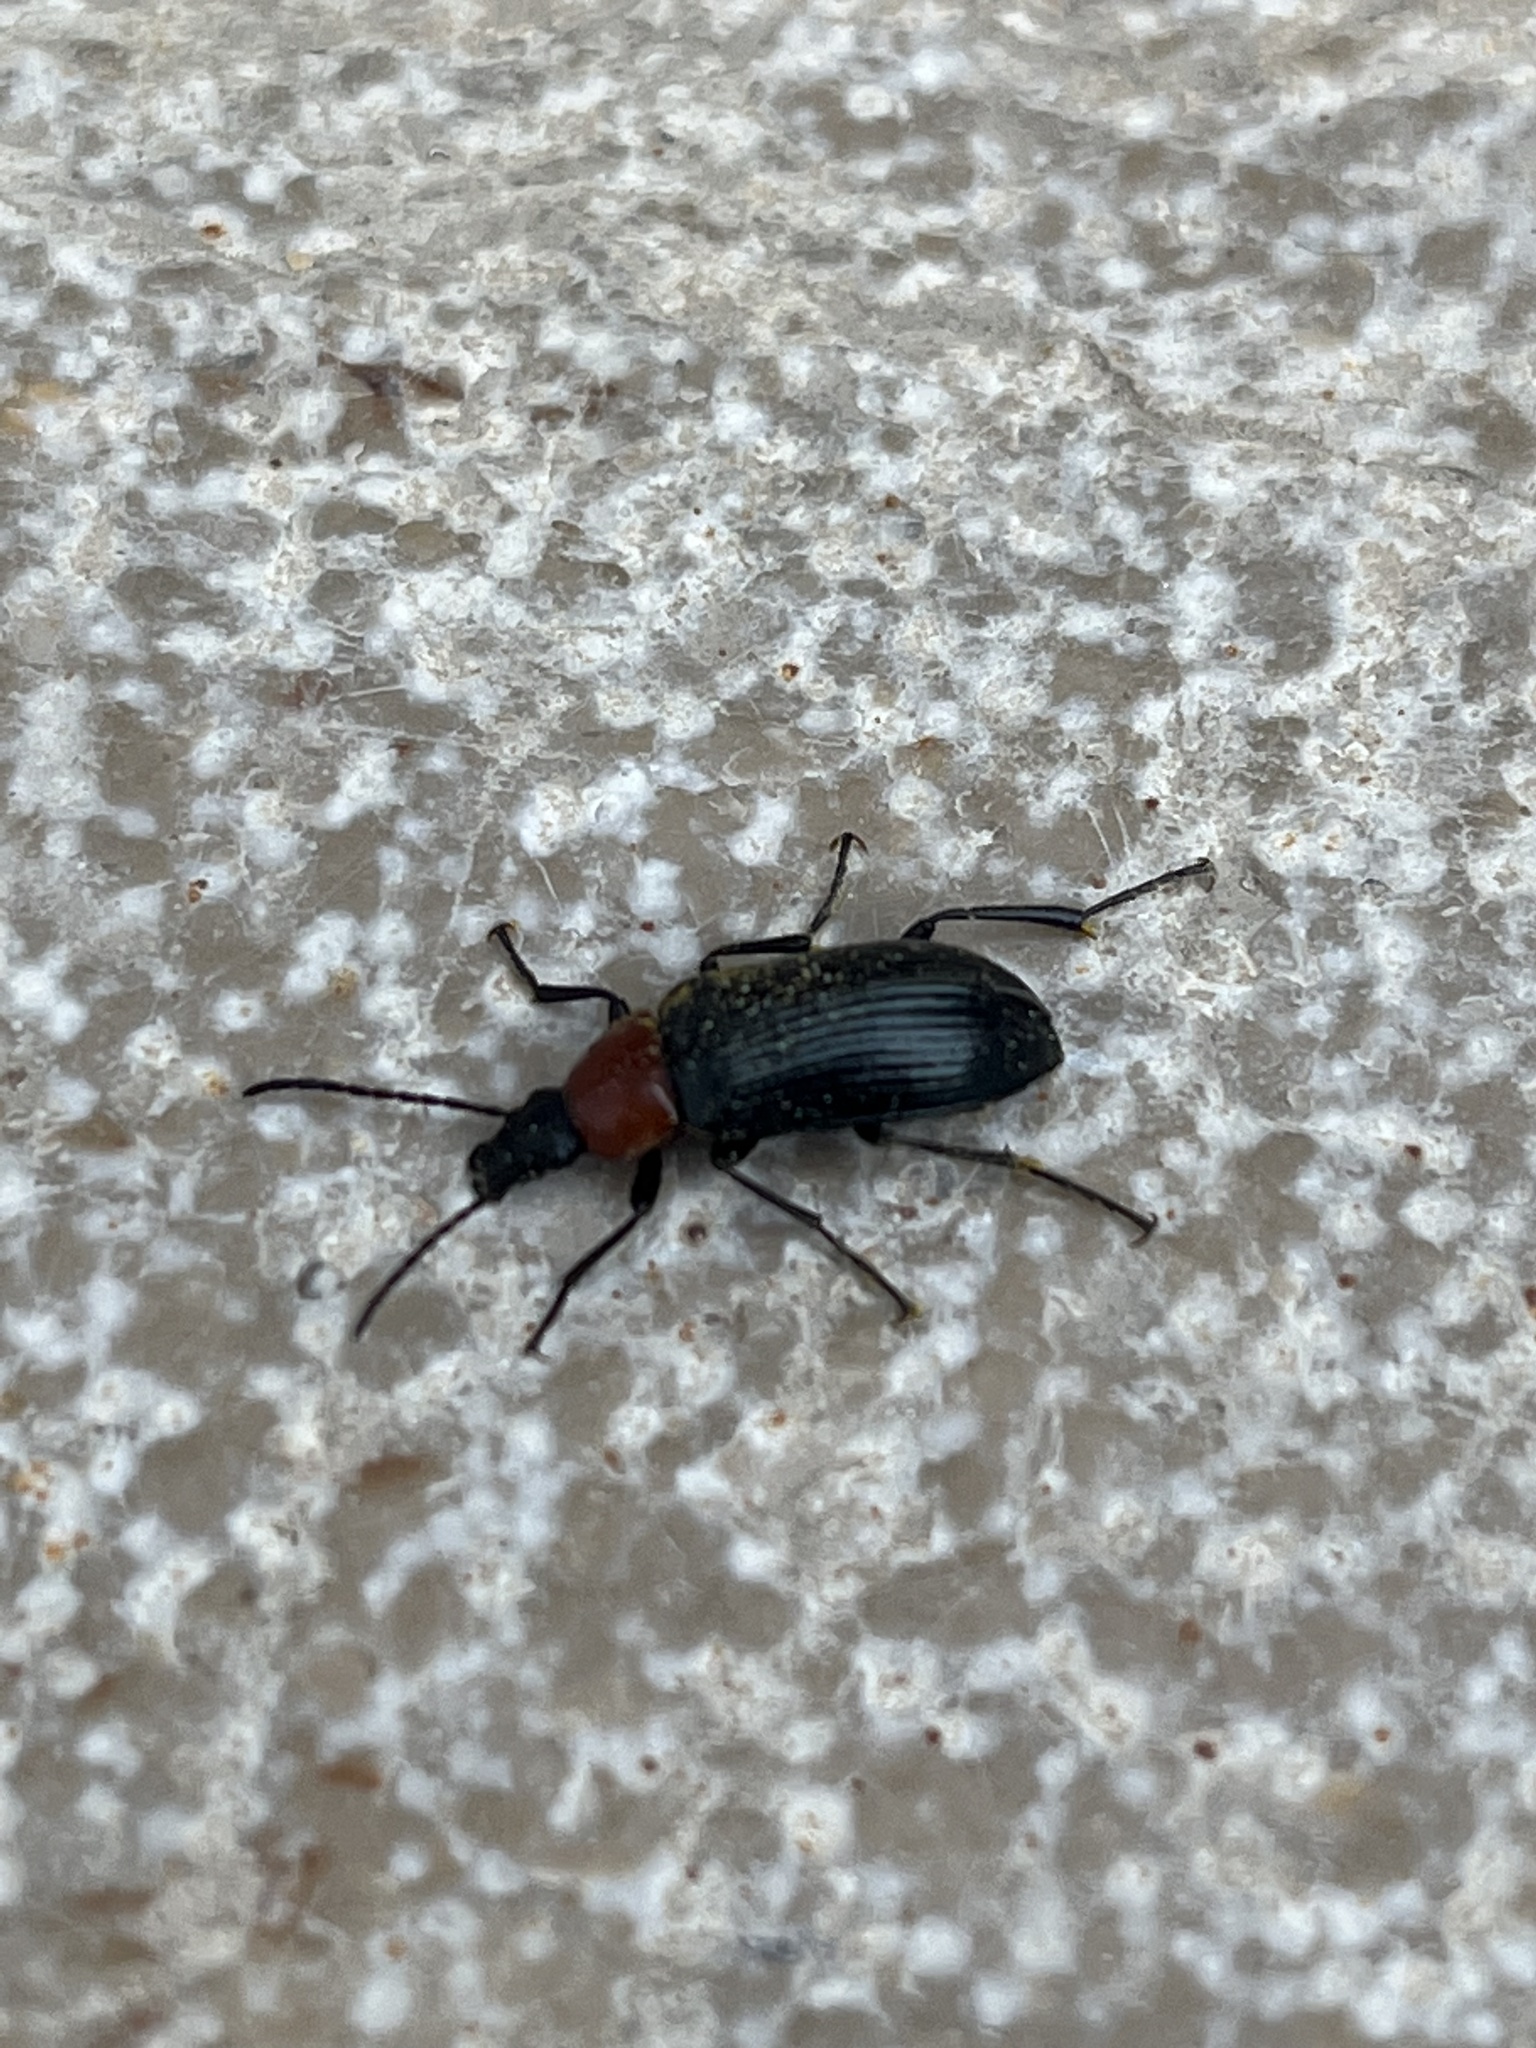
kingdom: Animalia
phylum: Arthropoda
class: Insecta
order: Coleoptera
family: Tenebrionidae
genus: Heliotaurus
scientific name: Heliotaurus ruficollis
